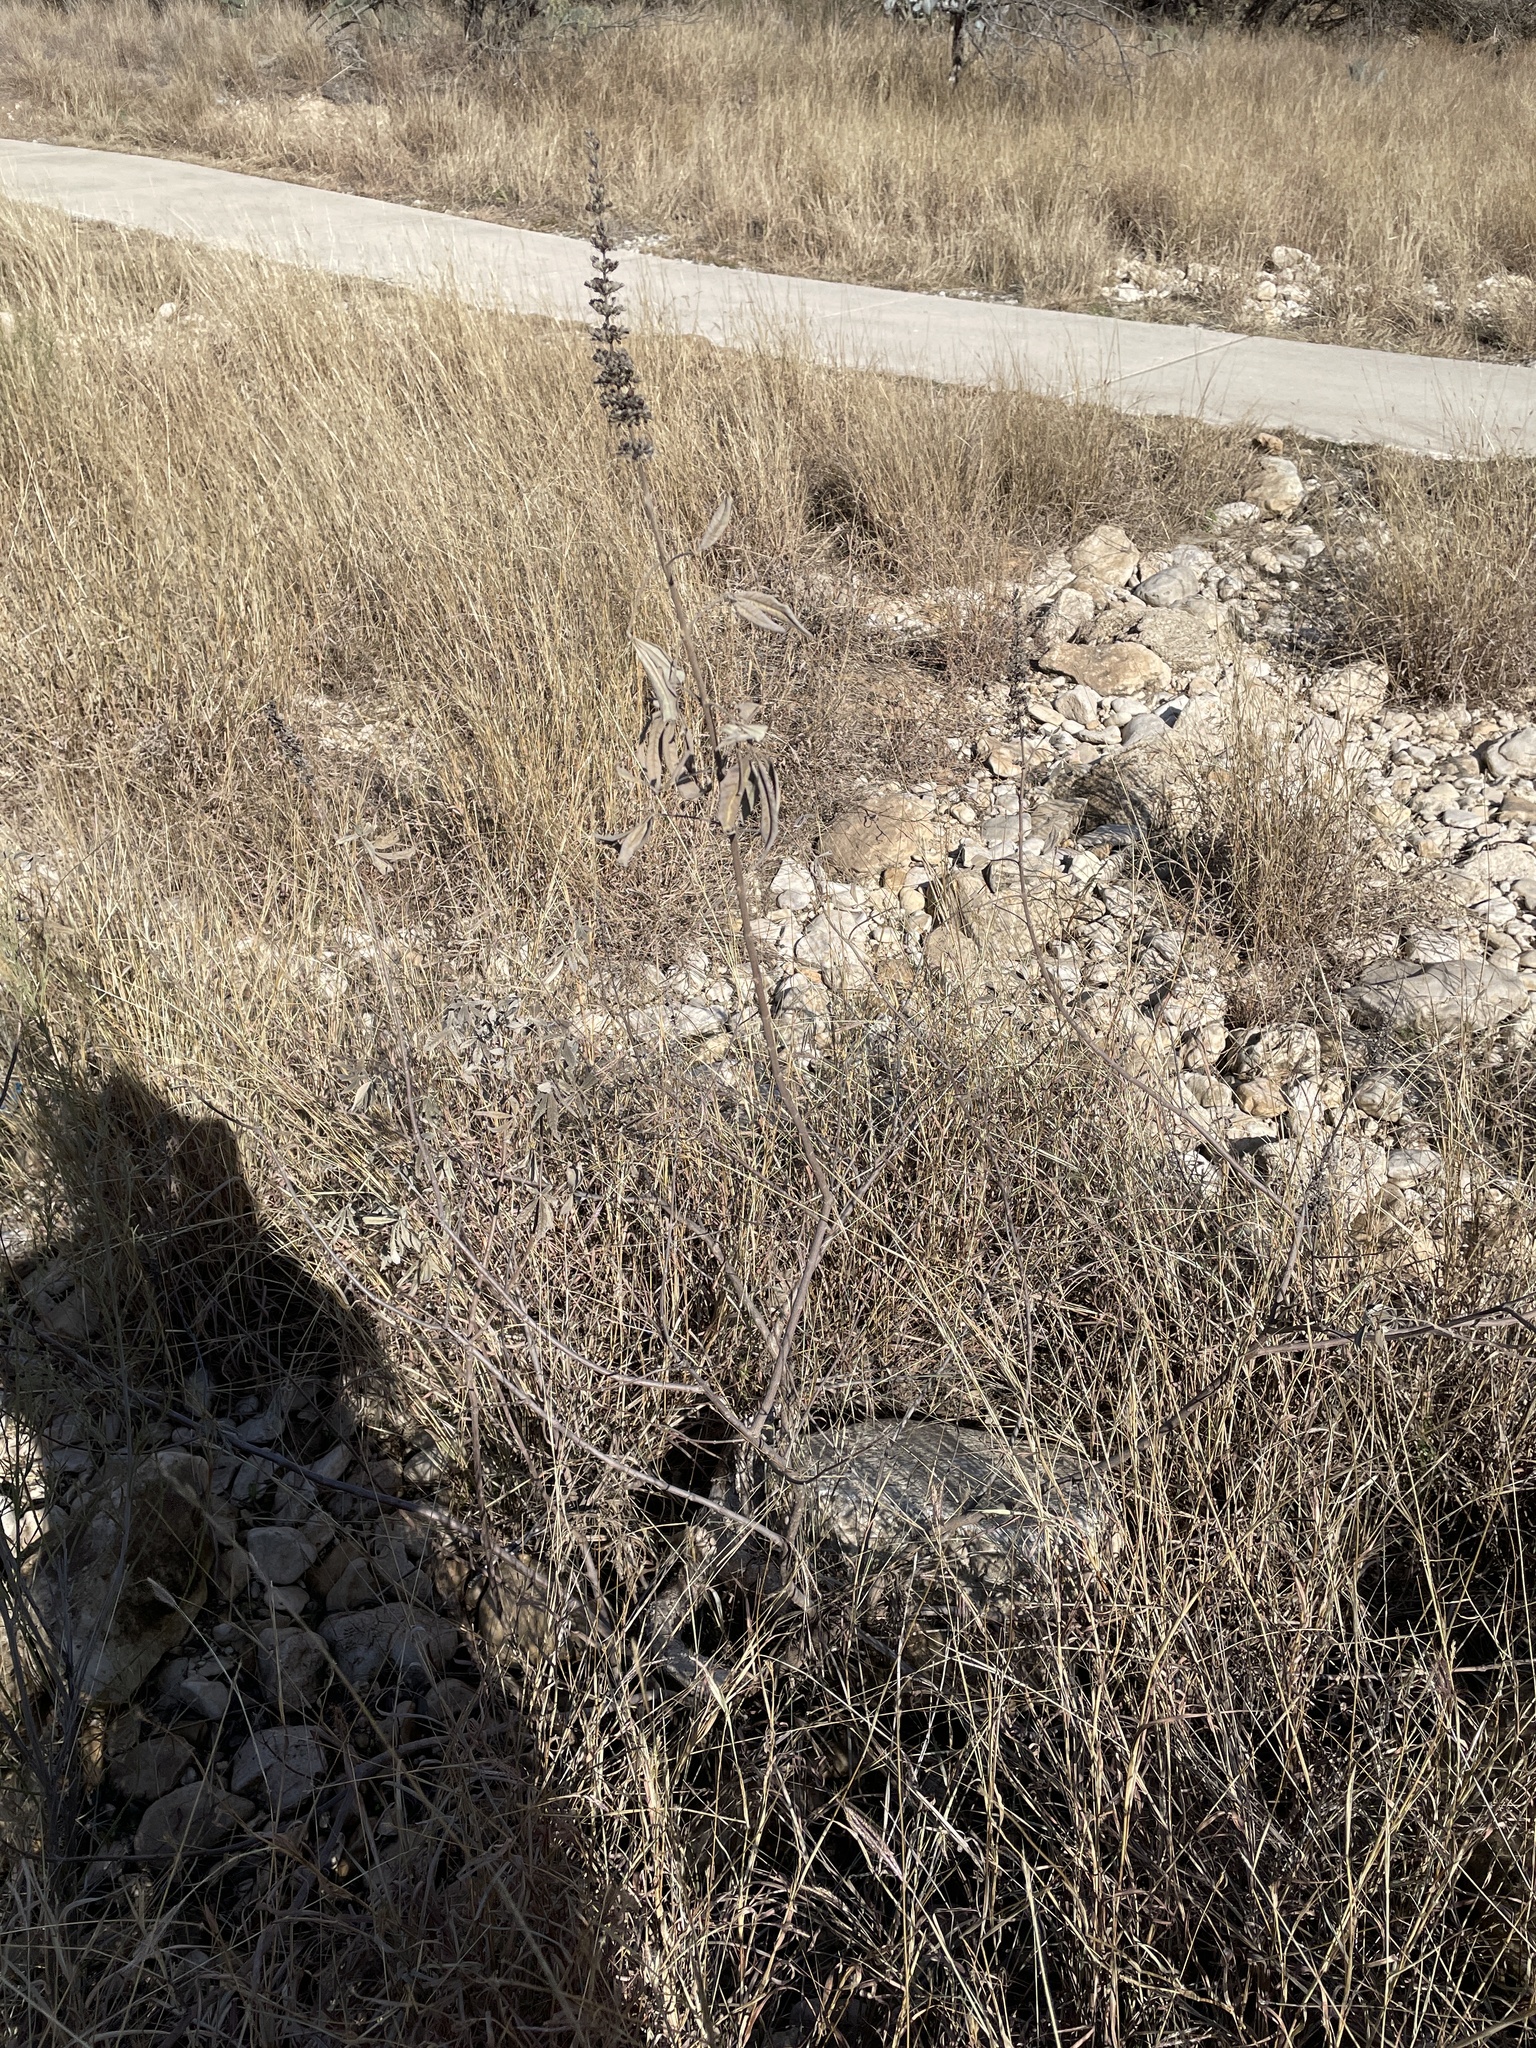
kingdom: Plantae
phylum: Tracheophyta
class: Magnoliopsida
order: Lamiales
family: Lamiaceae
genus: Vitex
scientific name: Vitex agnus-castus
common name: Chasteberry
